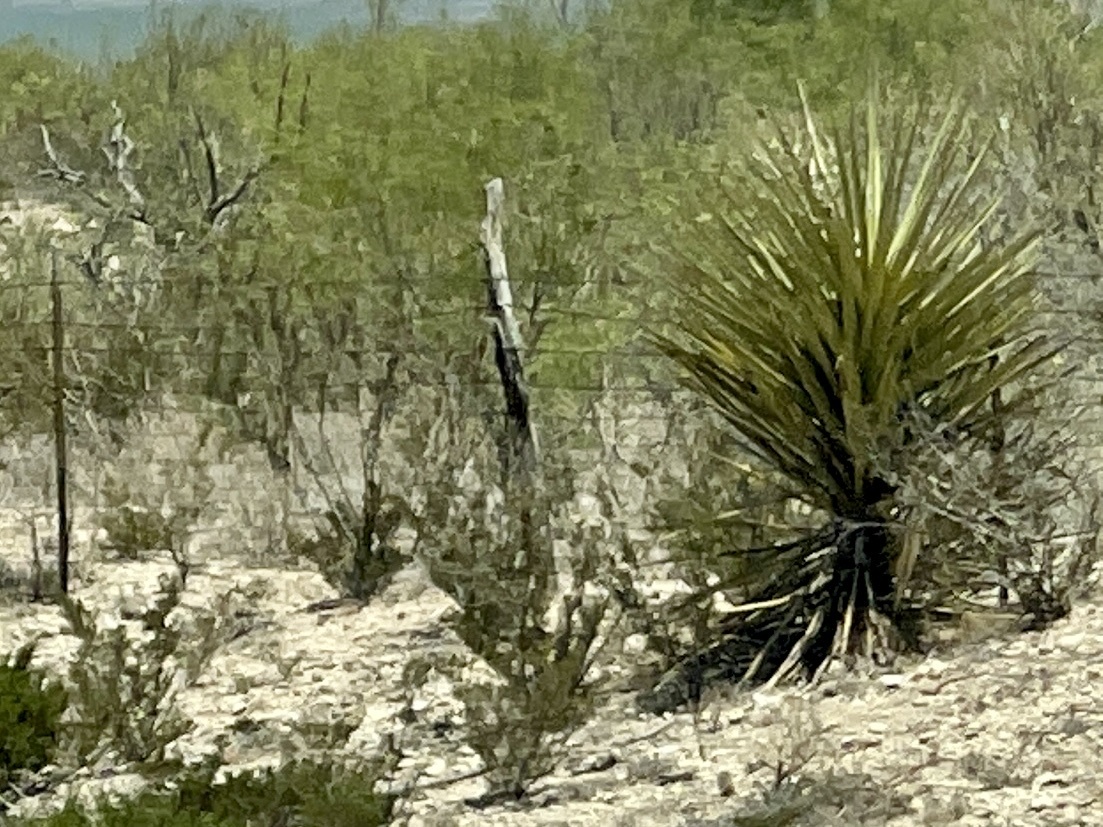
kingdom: Plantae
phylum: Tracheophyta
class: Liliopsida
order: Asparagales
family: Asparagaceae
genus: Yucca
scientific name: Yucca treculiana
